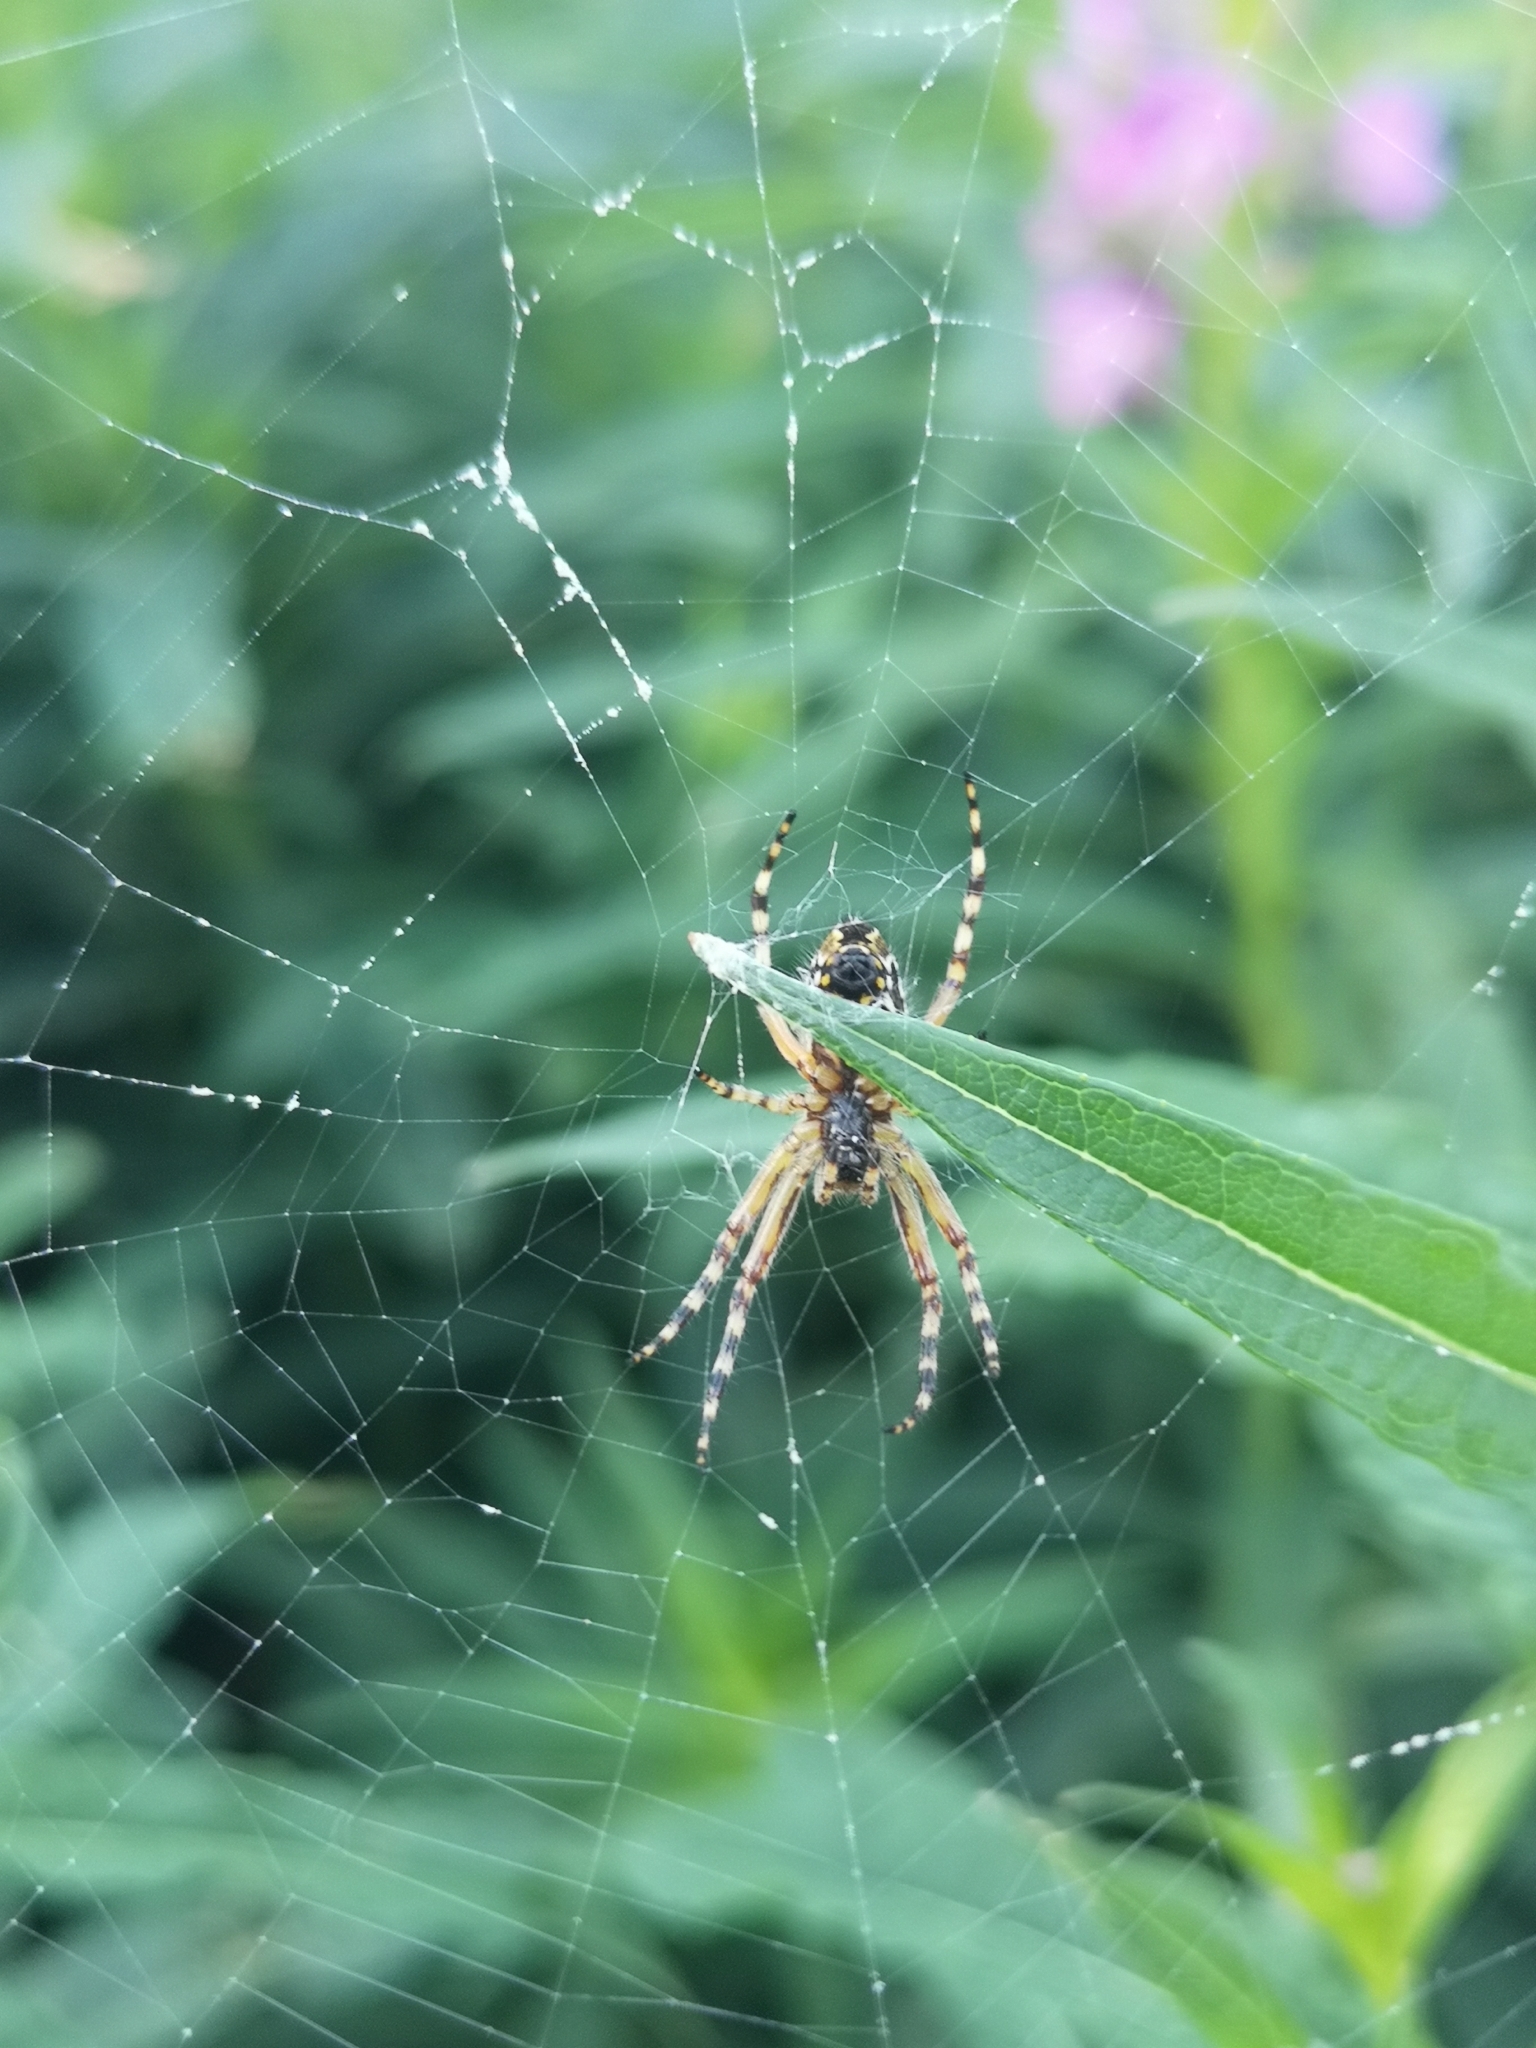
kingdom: Animalia
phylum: Arthropoda
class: Arachnida
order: Araneae
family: Araneidae
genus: Aculepeira
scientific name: Aculepeira ceropegia
